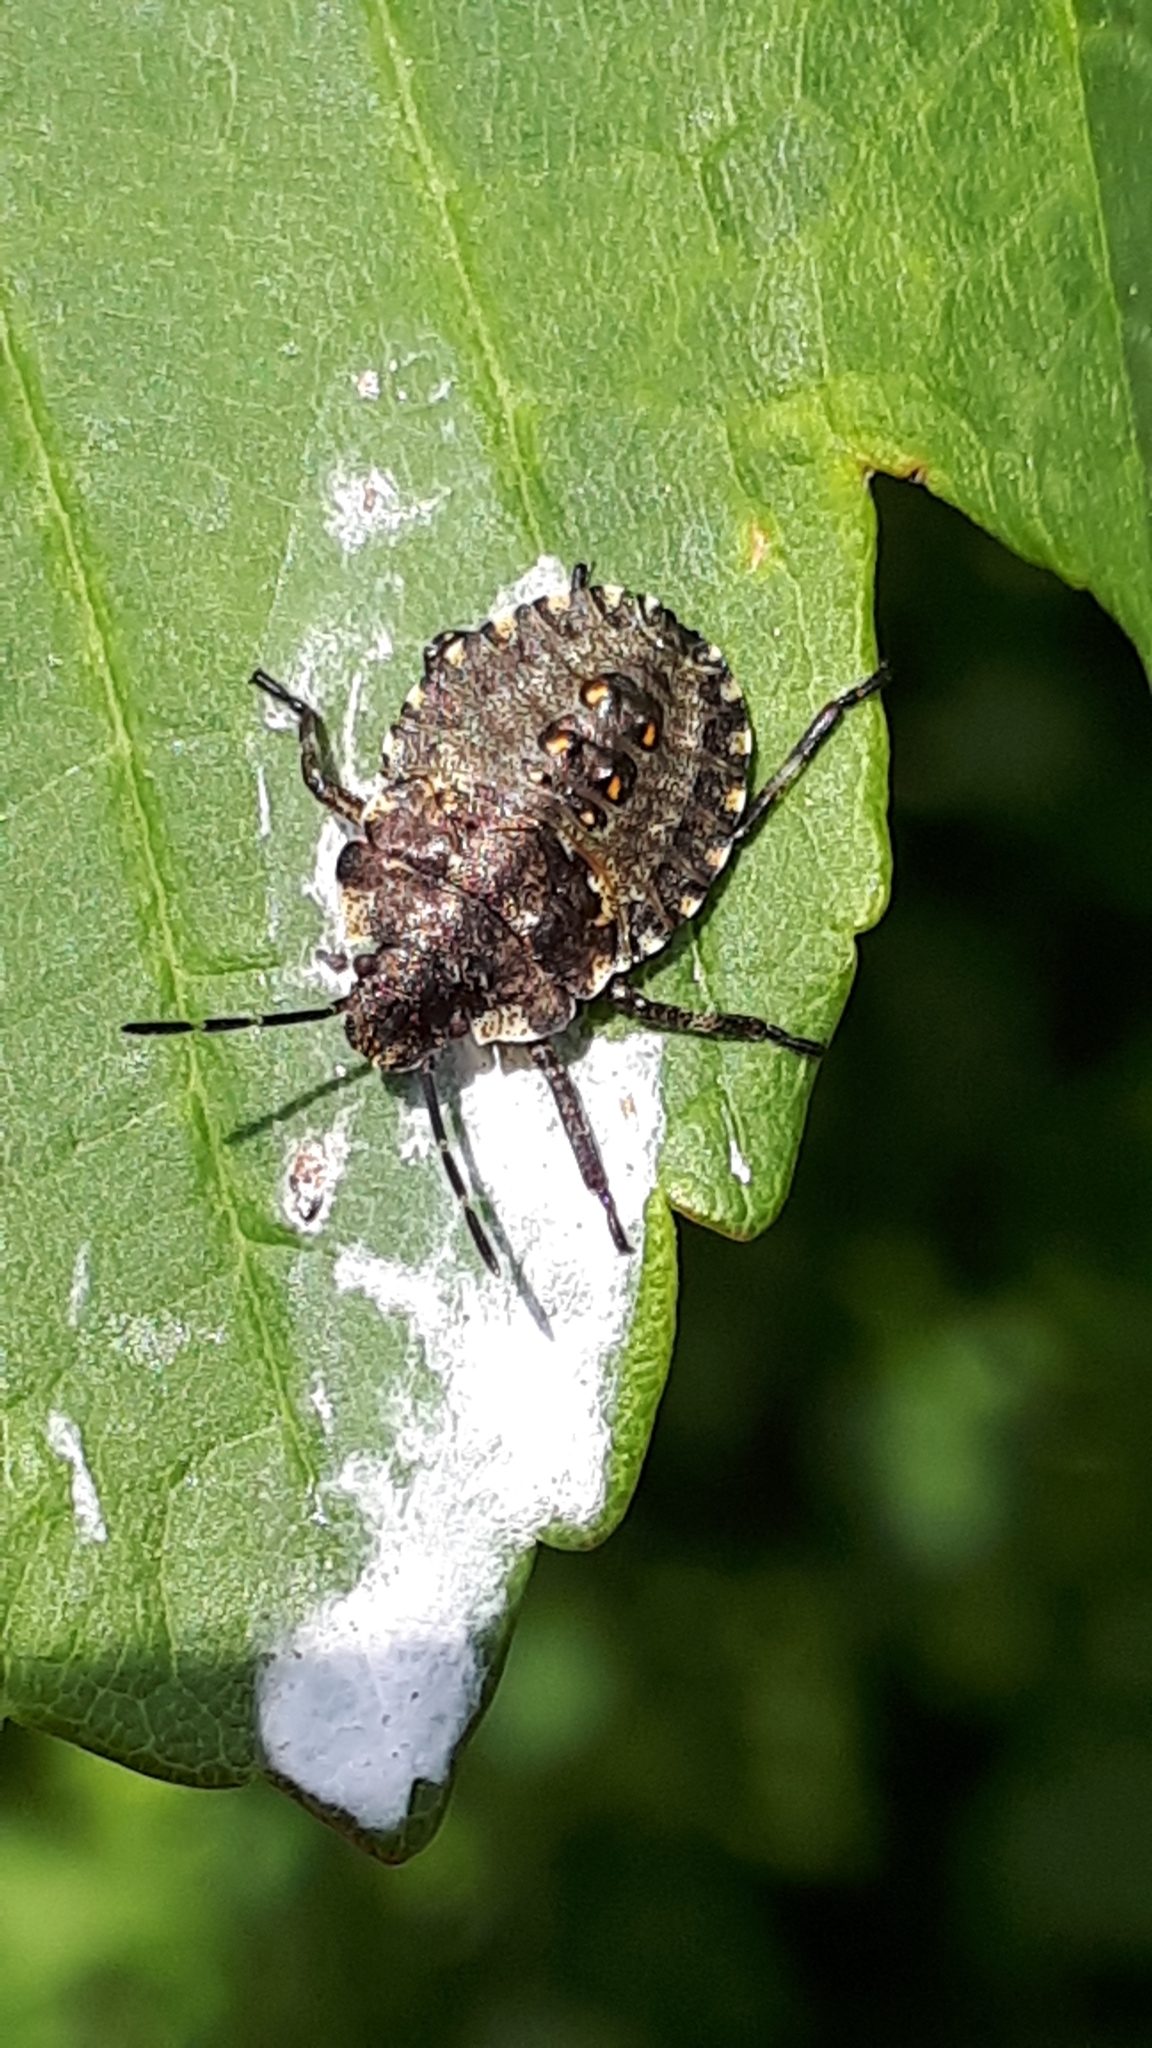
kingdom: Animalia
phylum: Arthropoda
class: Insecta
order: Hemiptera
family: Pentatomidae
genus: Pentatoma
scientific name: Pentatoma rufipes
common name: Forest bug
